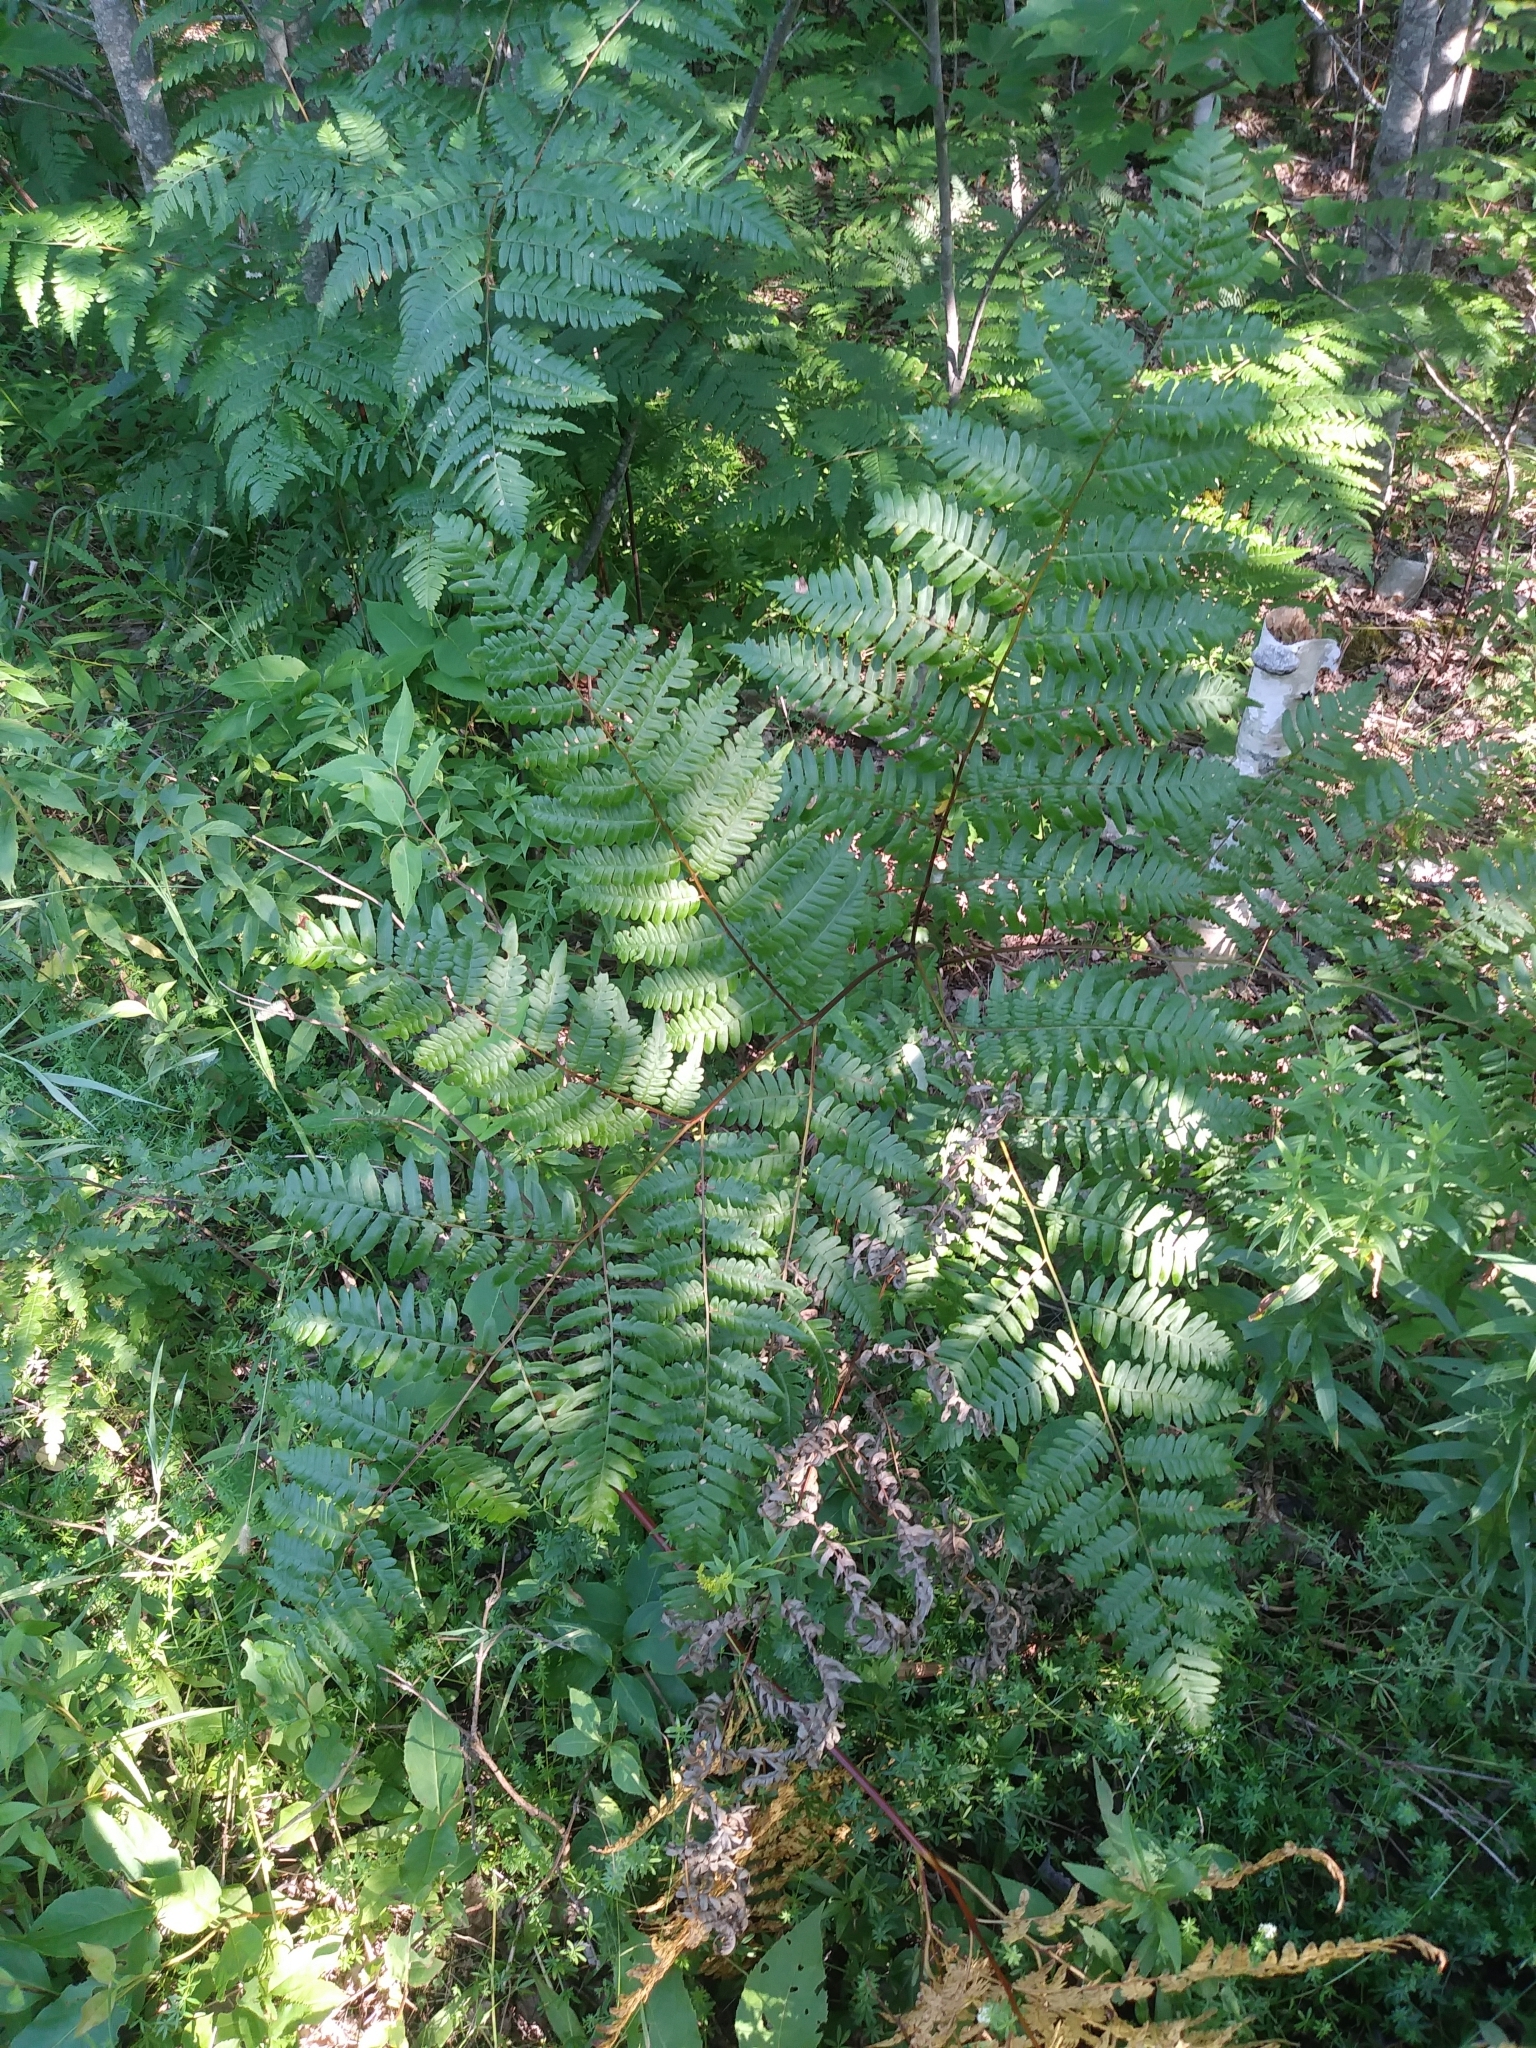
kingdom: Plantae
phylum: Tracheophyta
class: Polypodiopsida
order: Polypodiales
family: Dennstaedtiaceae
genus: Pteridium
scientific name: Pteridium aquilinum
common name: Bracken
